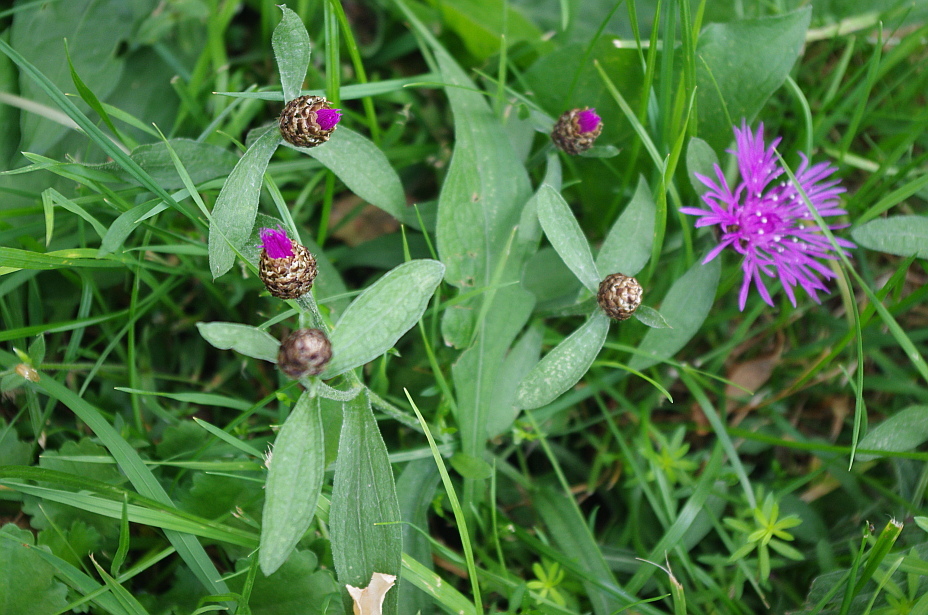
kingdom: Plantae
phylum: Tracheophyta
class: Magnoliopsida
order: Asterales
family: Asteraceae
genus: Centaurea
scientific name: Centaurea jacea
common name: Brown knapweed
